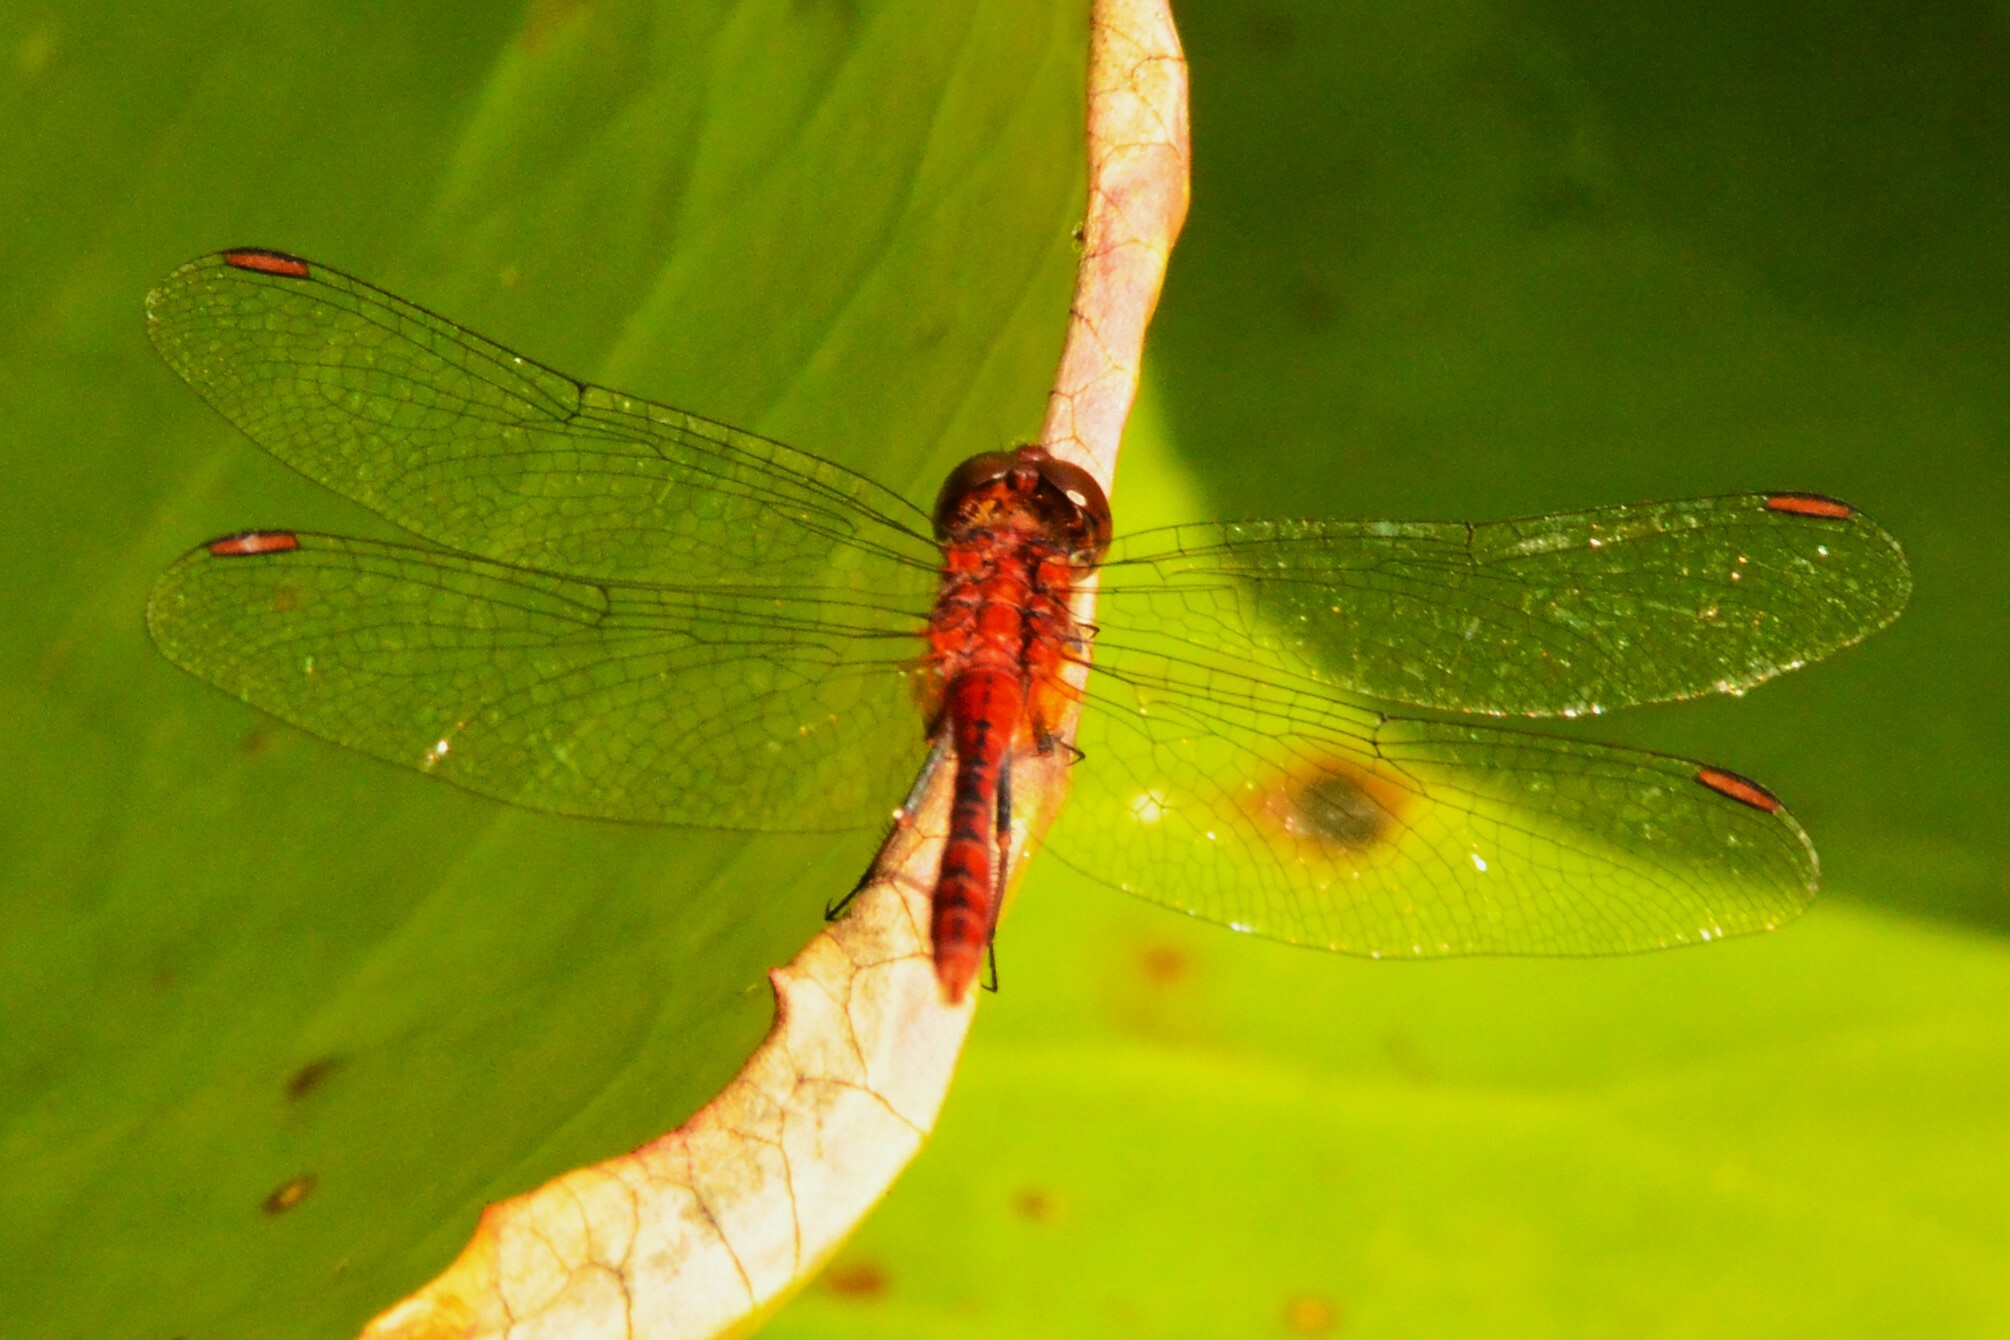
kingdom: Animalia
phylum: Arthropoda
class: Insecta
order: Odonata
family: Libellulidae
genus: Diplacodes
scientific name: Diplacodes bipunctata
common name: Red percher dragonfly
